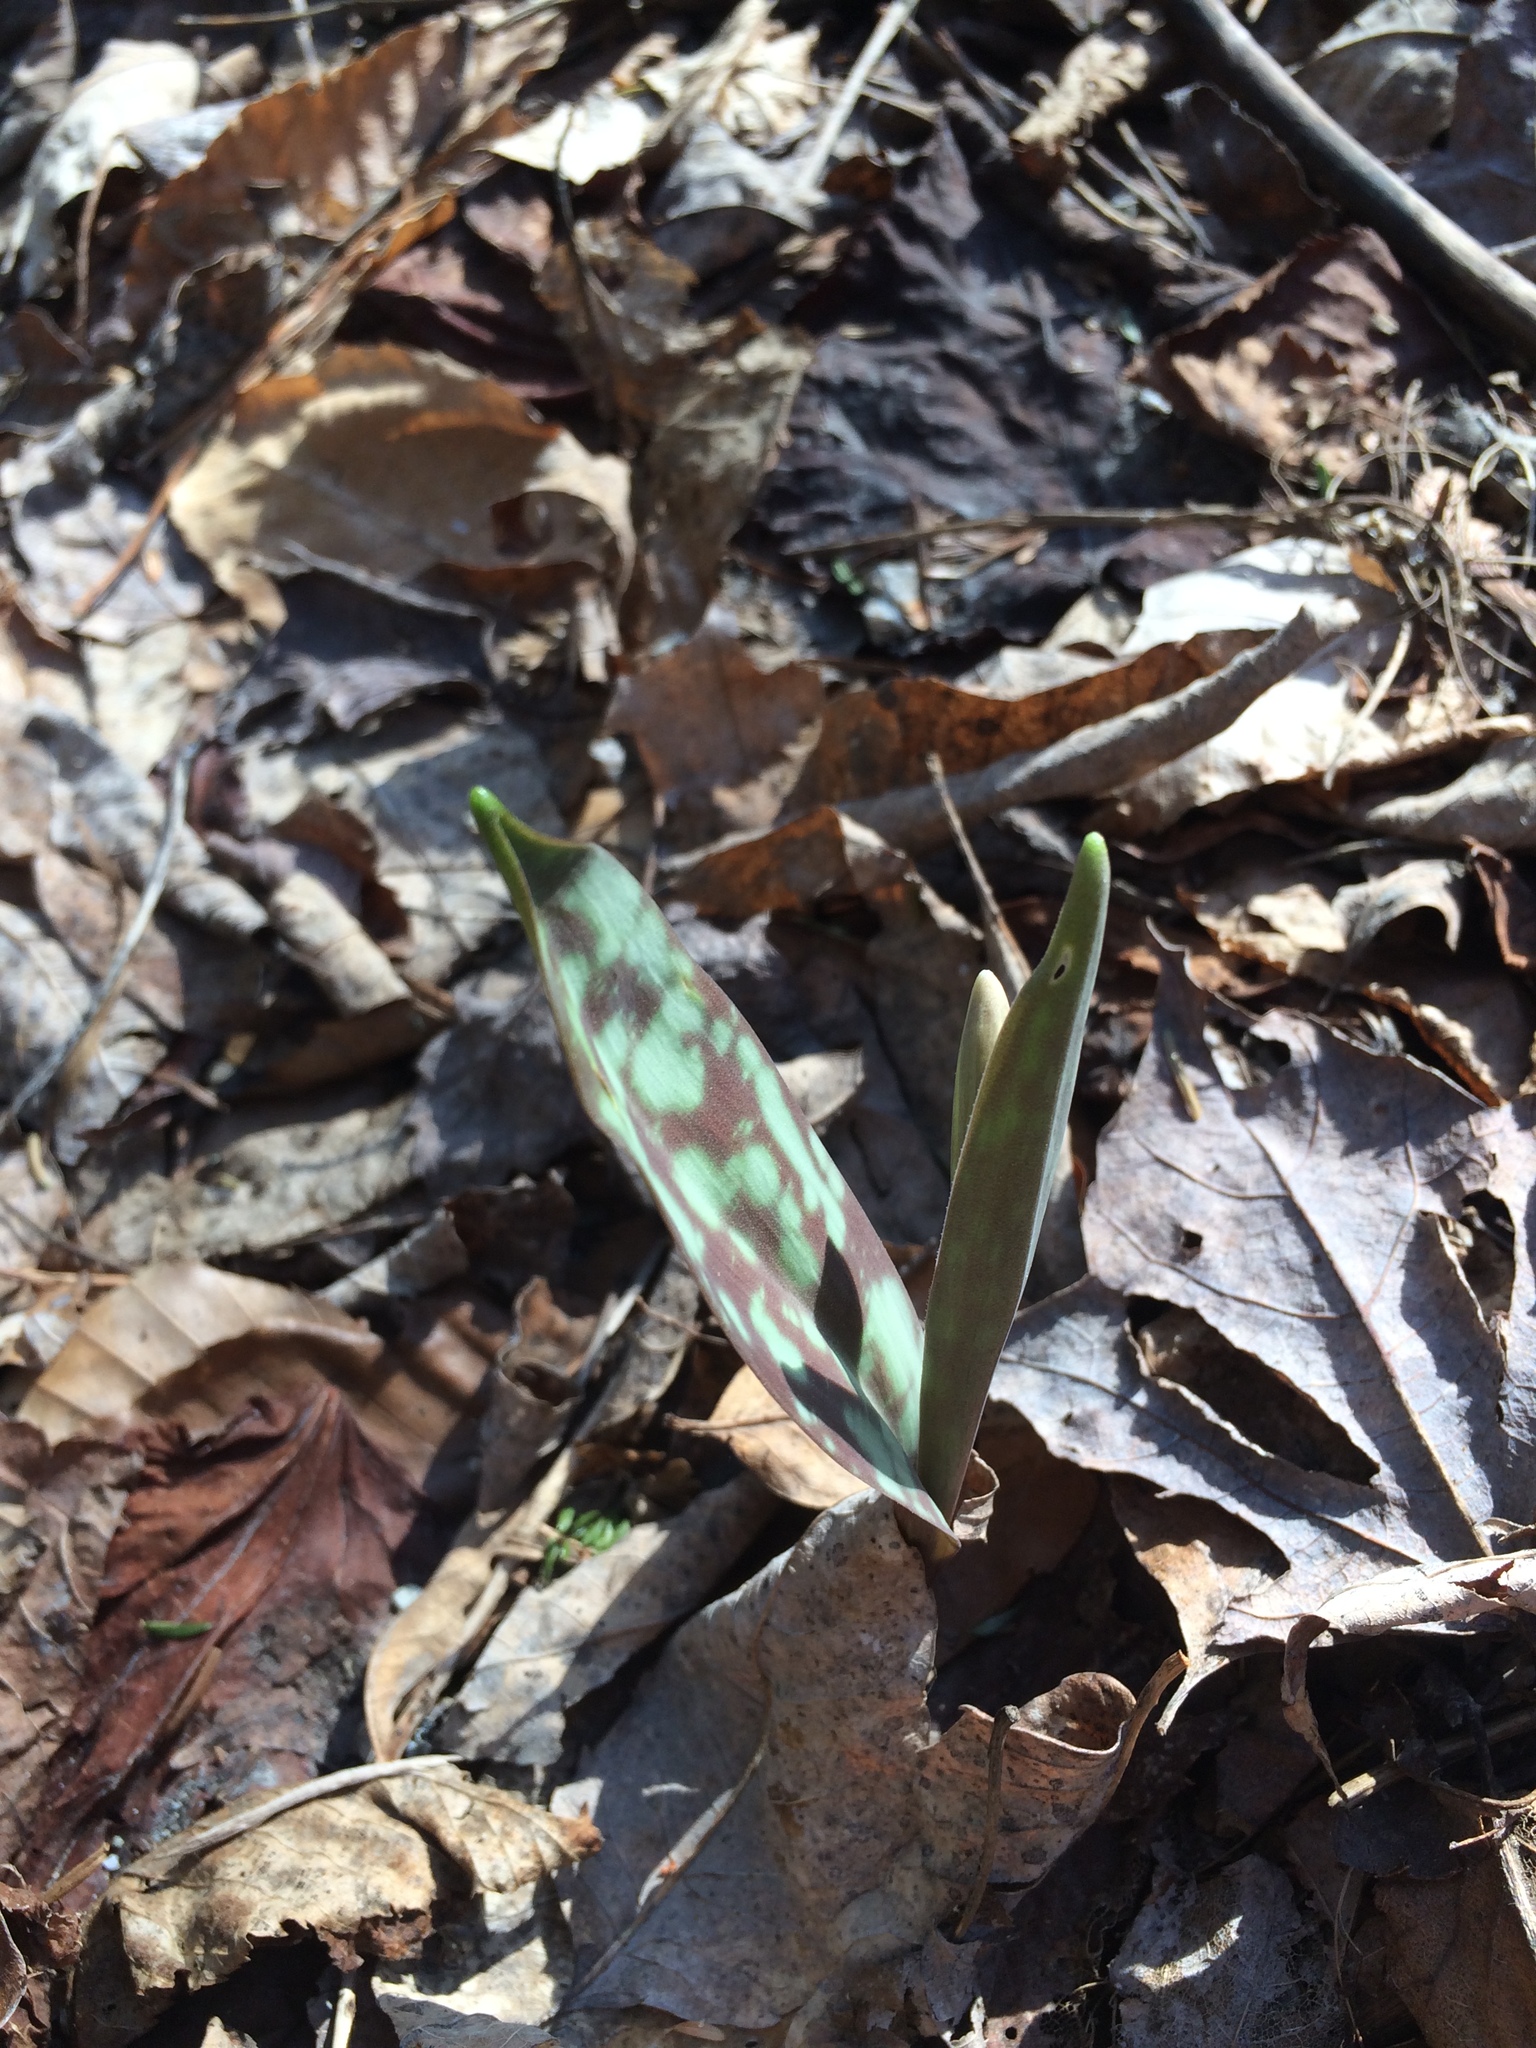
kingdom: Plantae
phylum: Tracheophyta
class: Liliopsida
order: Liliales
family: Liliaceae
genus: Erythronium
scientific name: Erythronium americanum
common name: Yellow adder's-tongue
